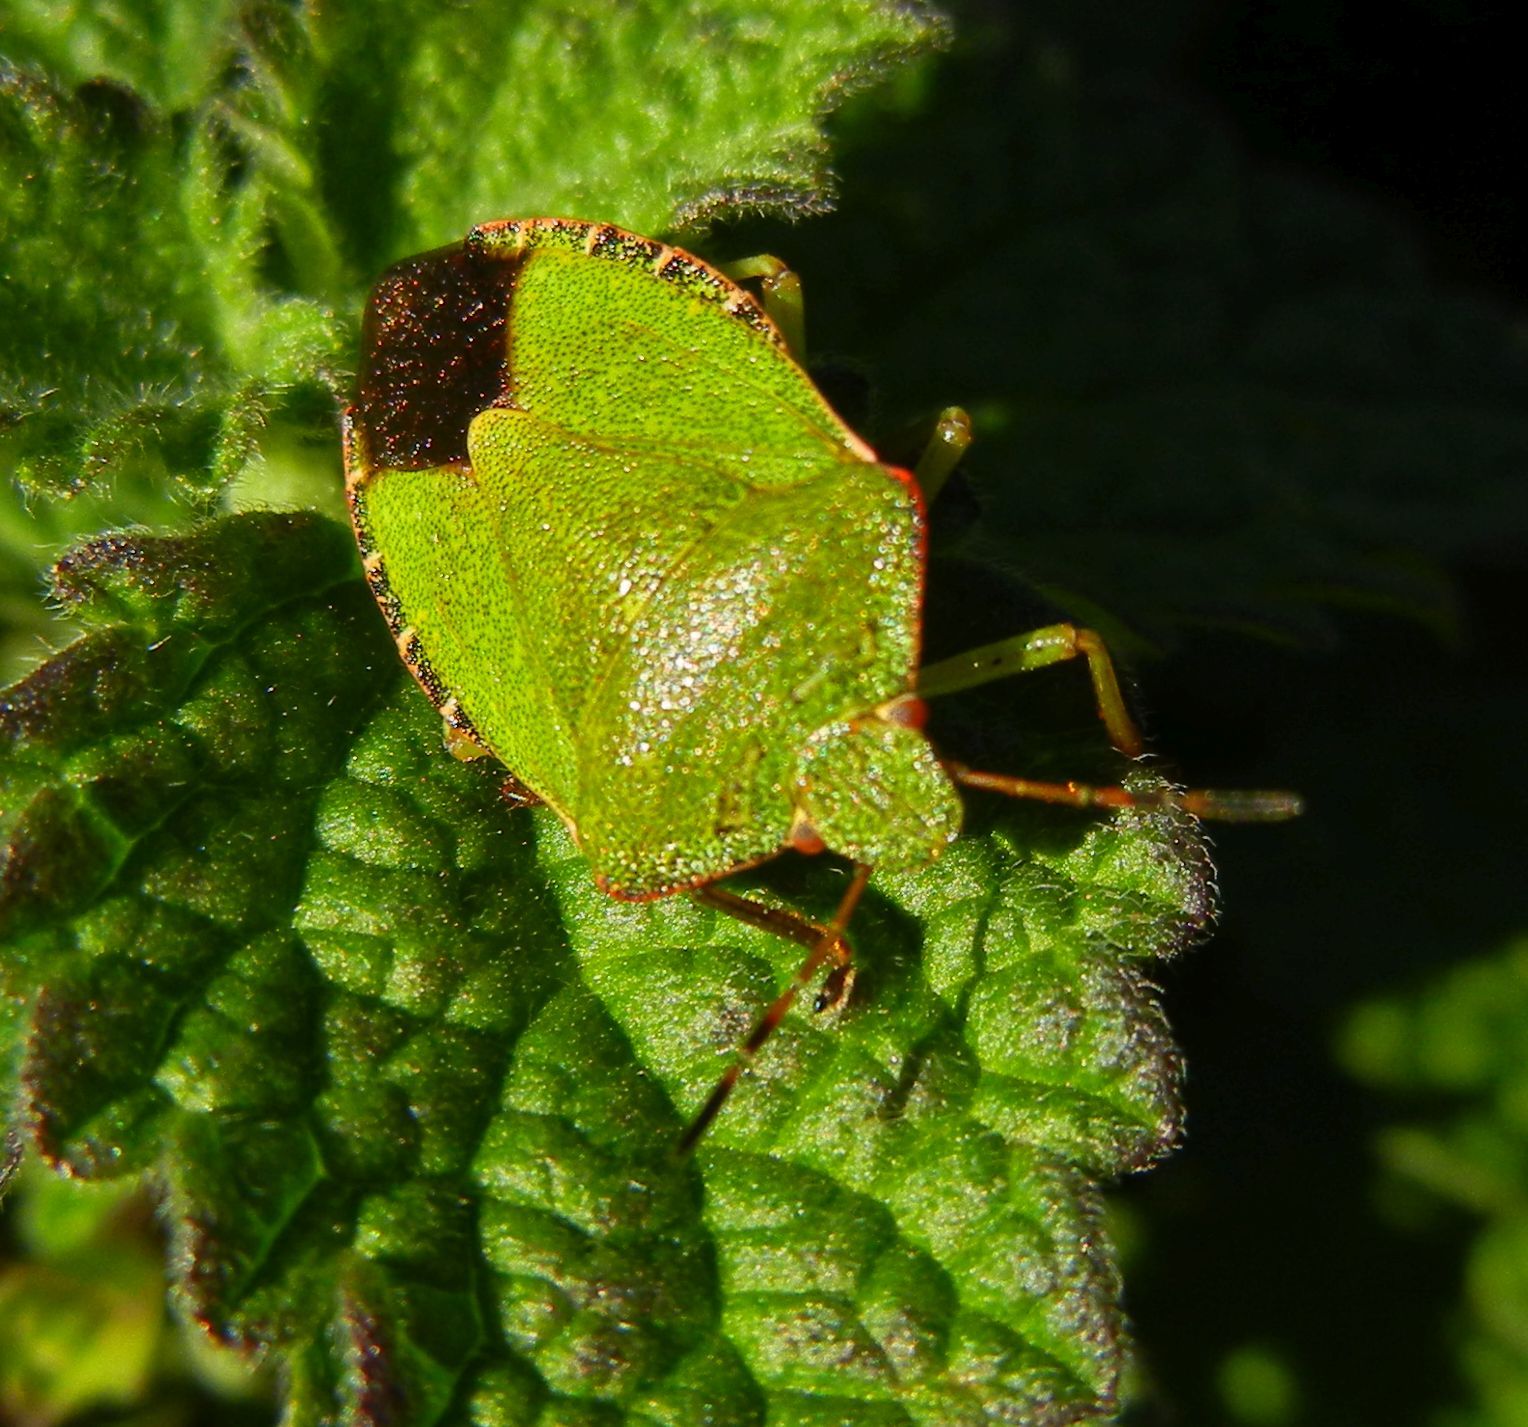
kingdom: Animalia
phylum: Arthropoda
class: Insecta
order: Hemiptera
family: Pentatomidae
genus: Palomena
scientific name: Palomena prasina
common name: Green shieldbug
